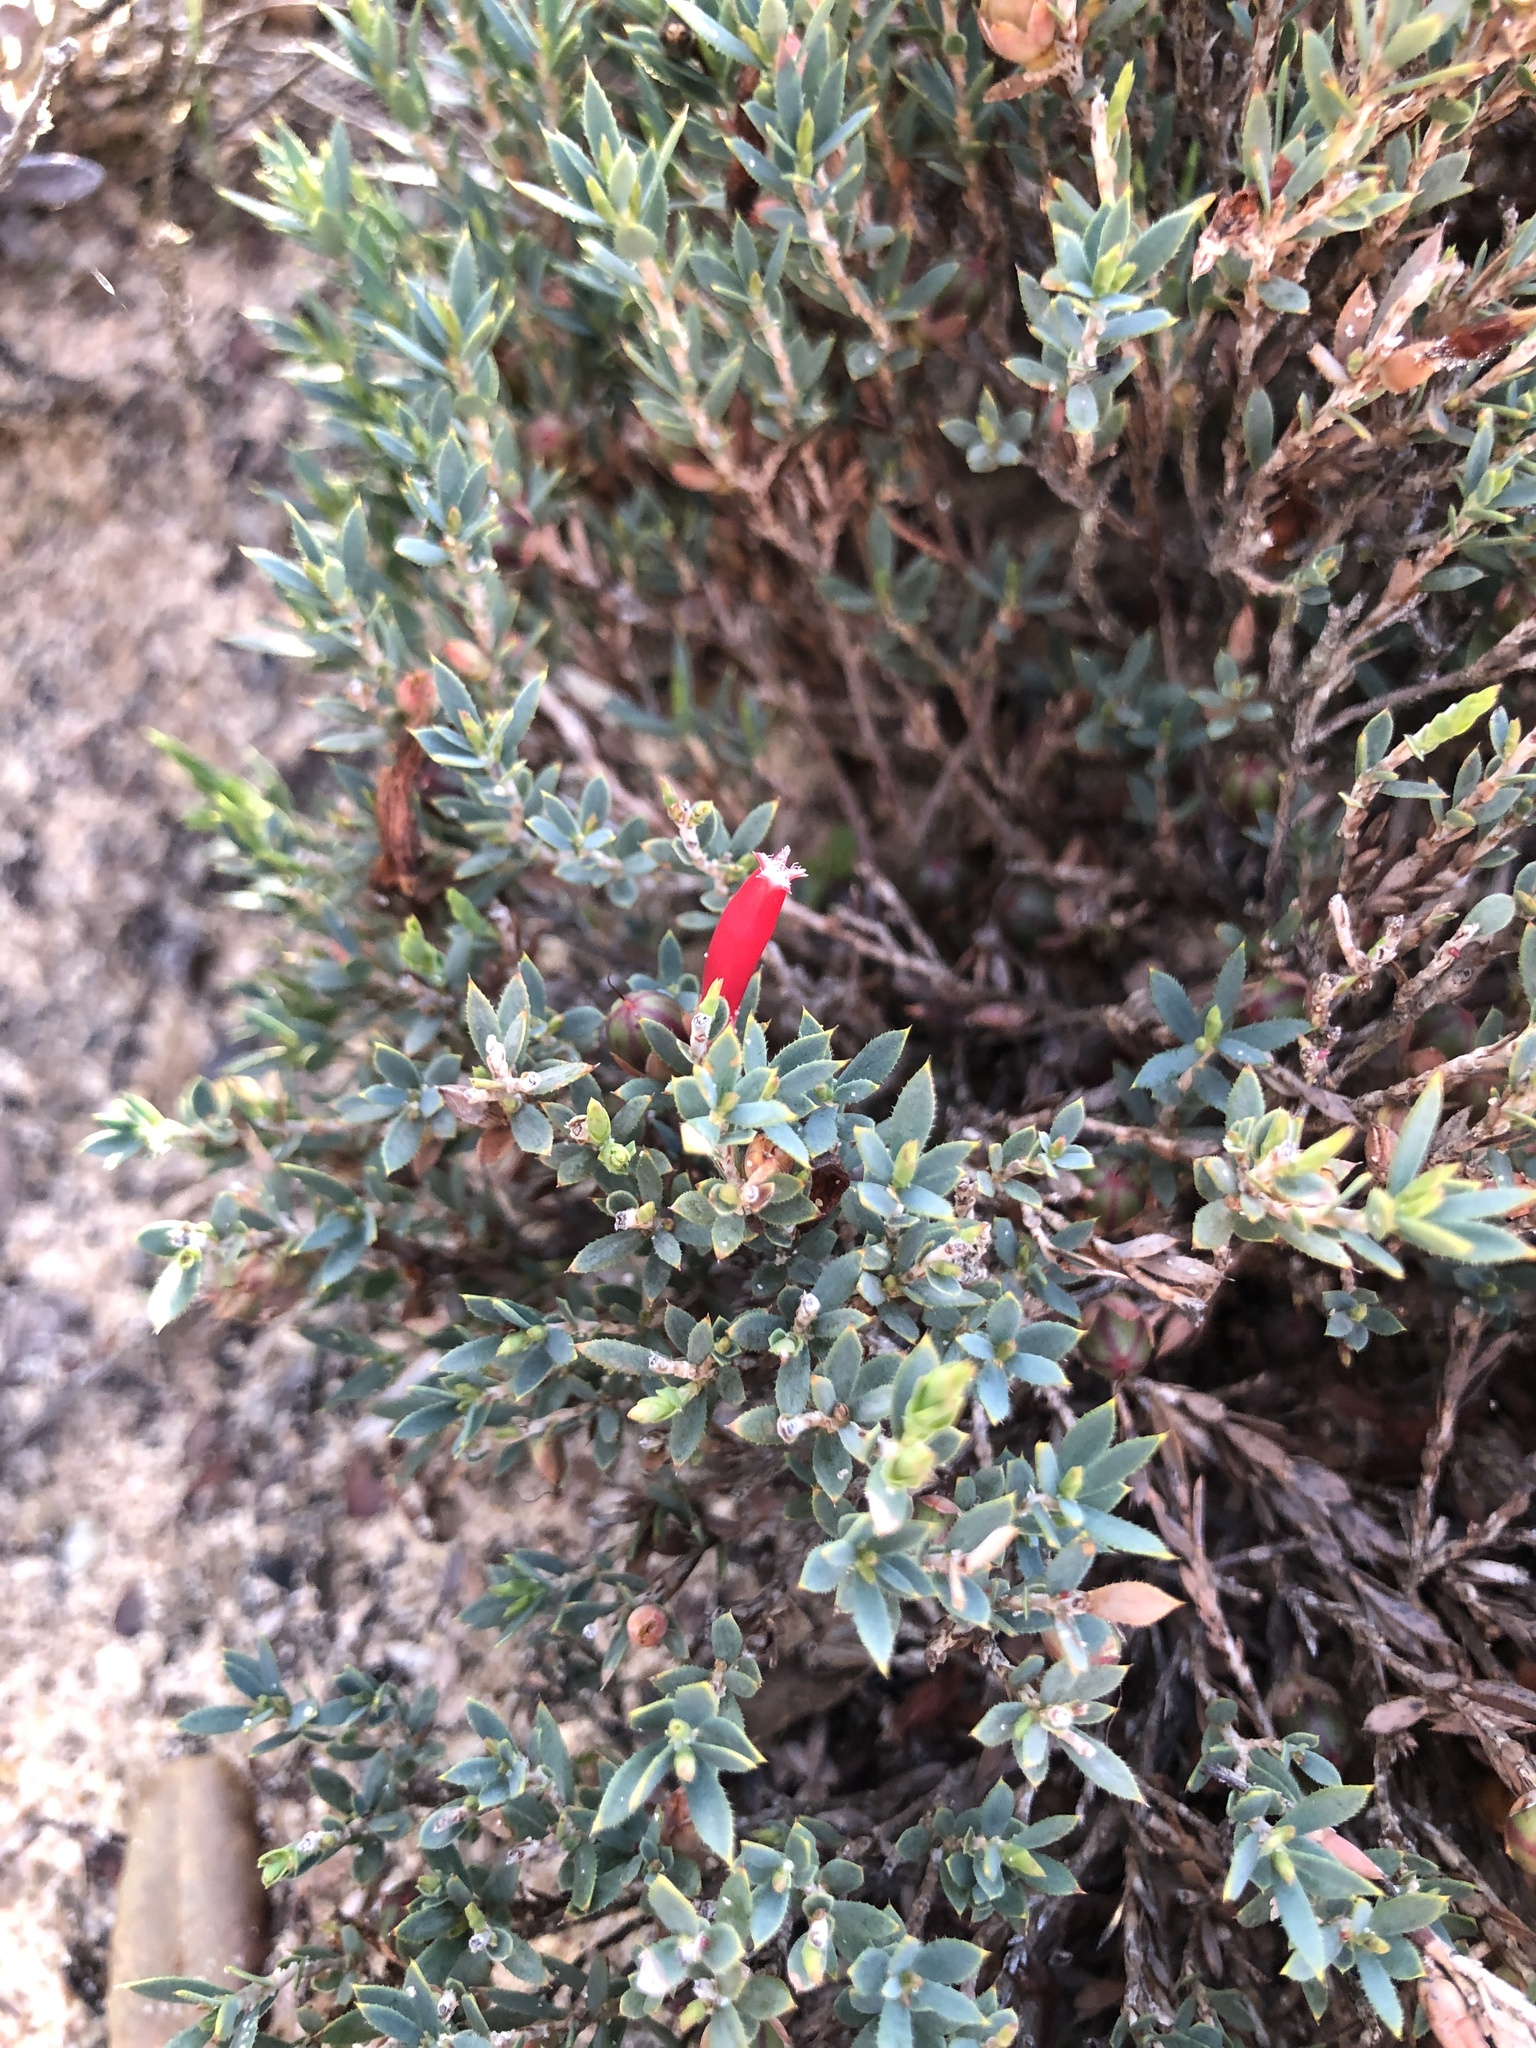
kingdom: Plantae
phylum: Tracheophyta
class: Magnoliopsida
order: Ericales
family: Ericaceae
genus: Styphelia
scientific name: Styphelia humifusa
